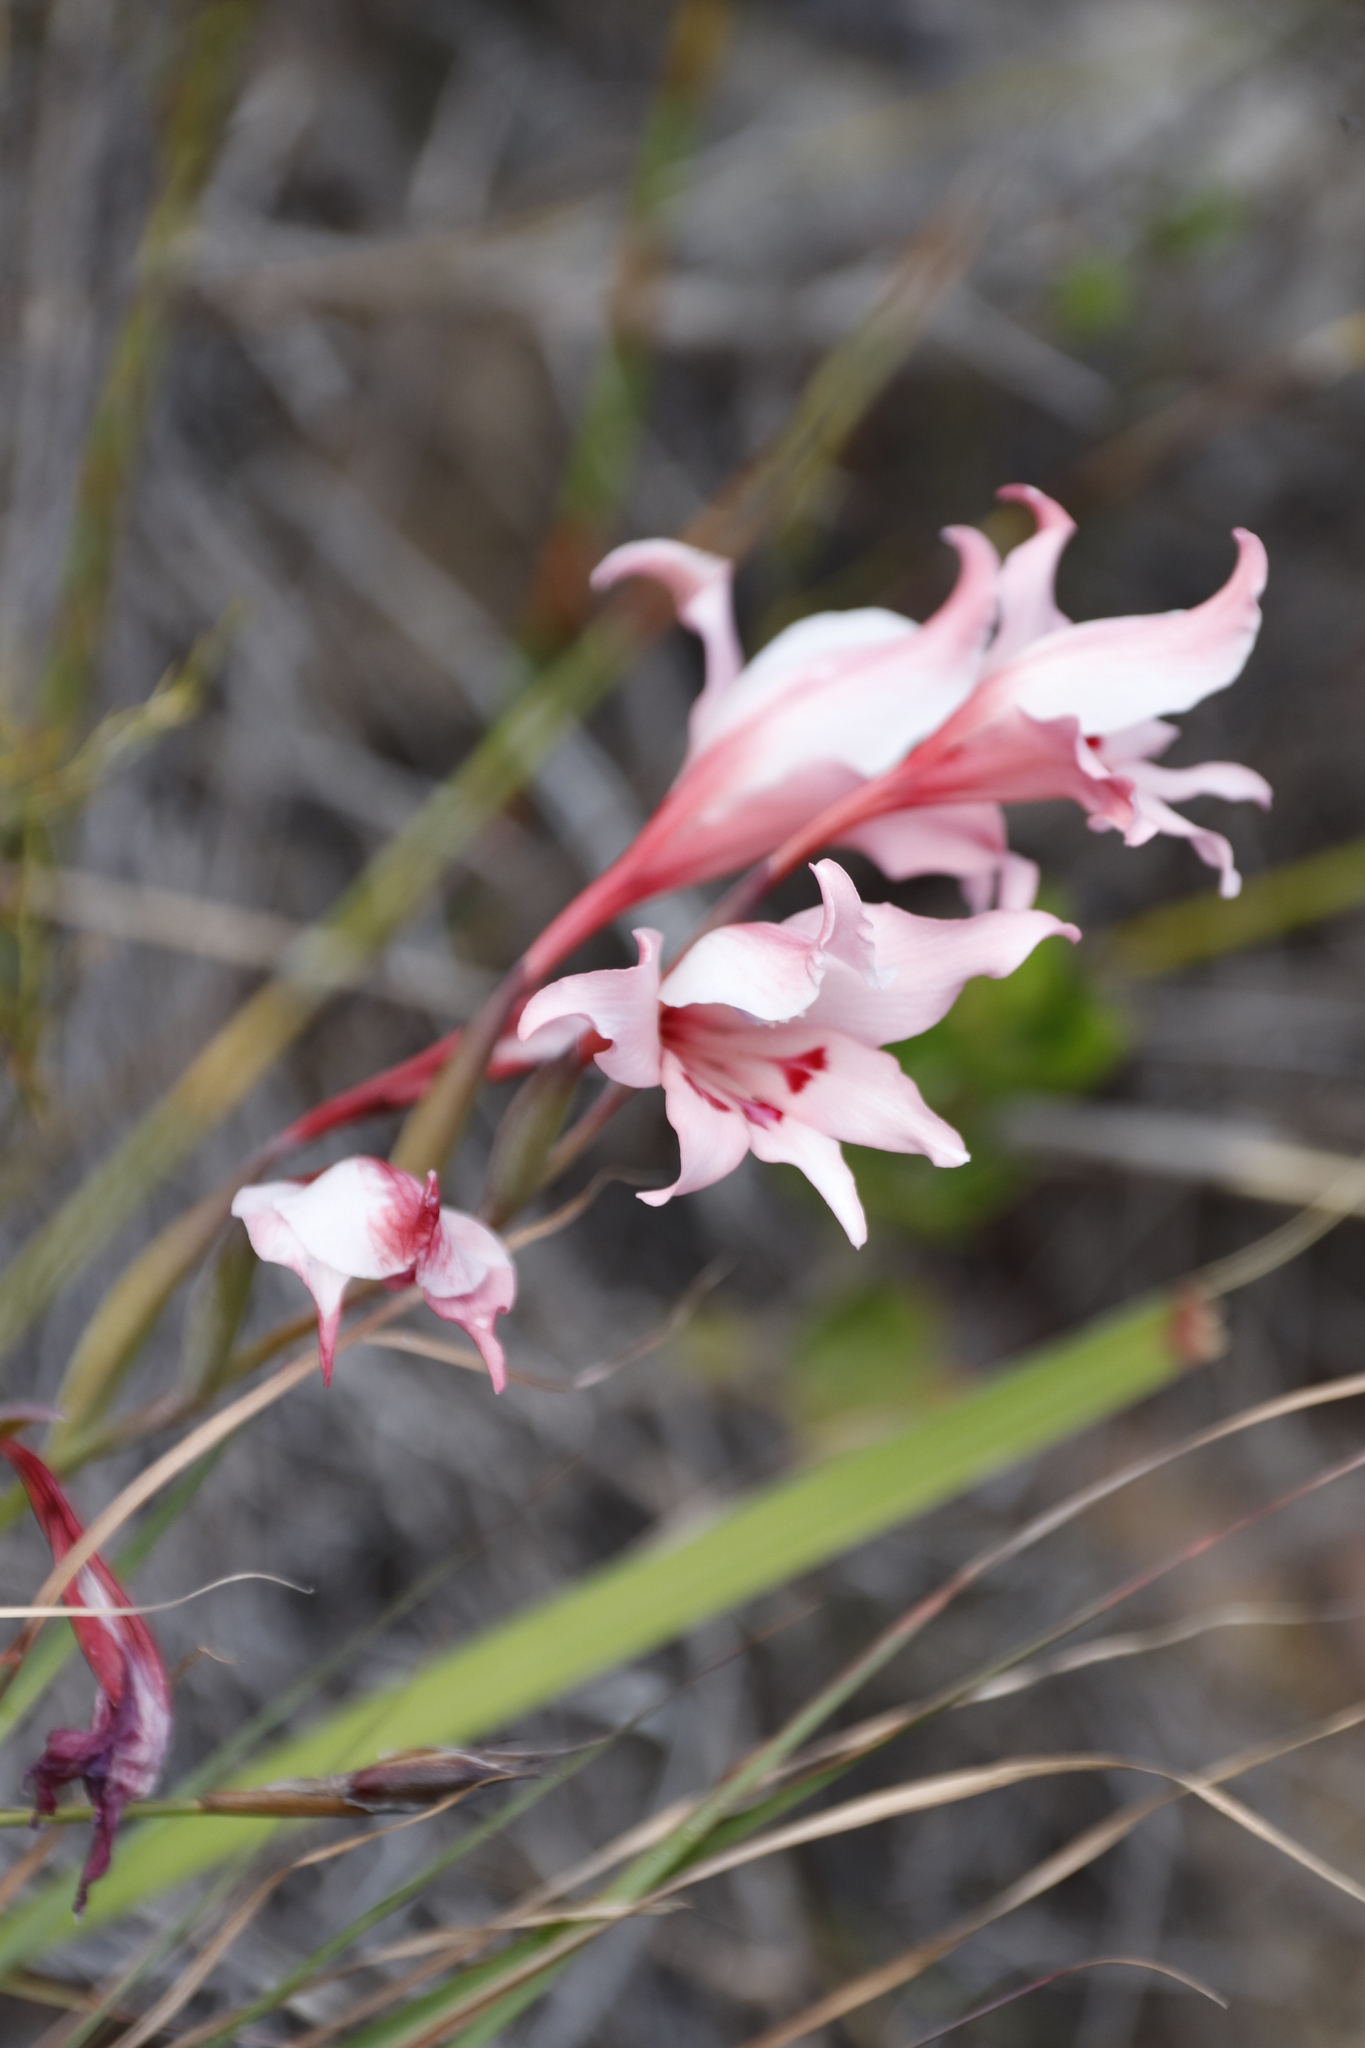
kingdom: Plantae
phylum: Tracheophyta
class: Liliopsida
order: Asparagales
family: Iridaceae
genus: Gladiolus
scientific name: Gladiolus carneus
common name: Painted-lady
